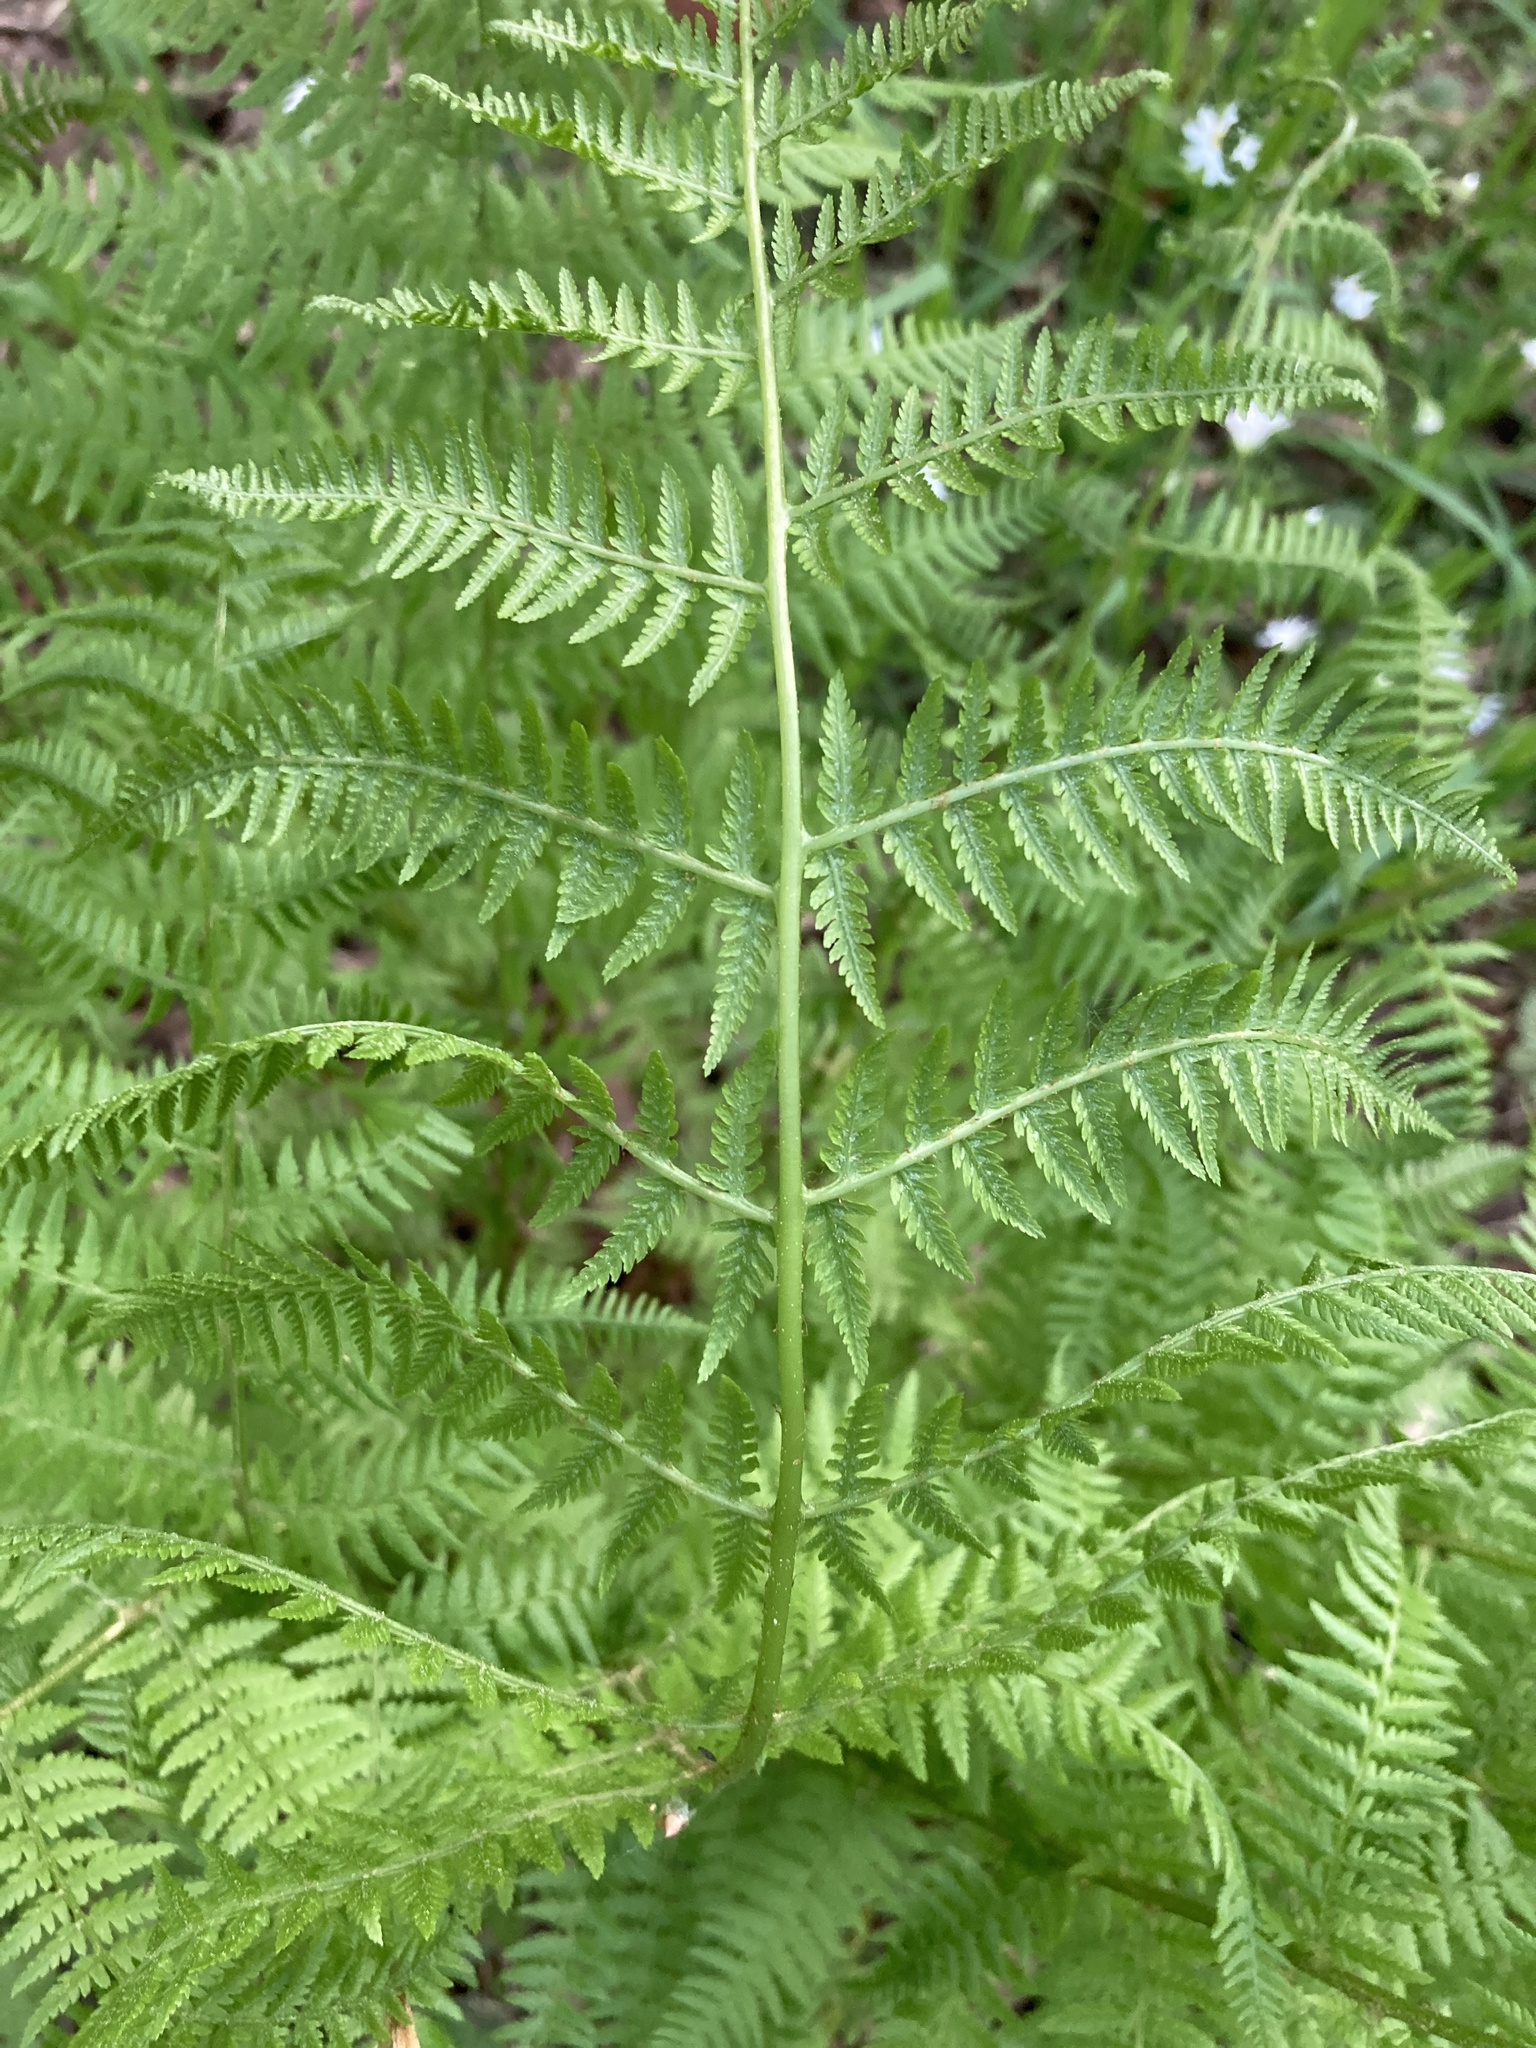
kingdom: Plantae
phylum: Tracheophyta
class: Polypodiopsida
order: Polypodiales
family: Athyriaceae
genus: Athyrium
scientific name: Athyrium filix-femina
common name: Lady fern
